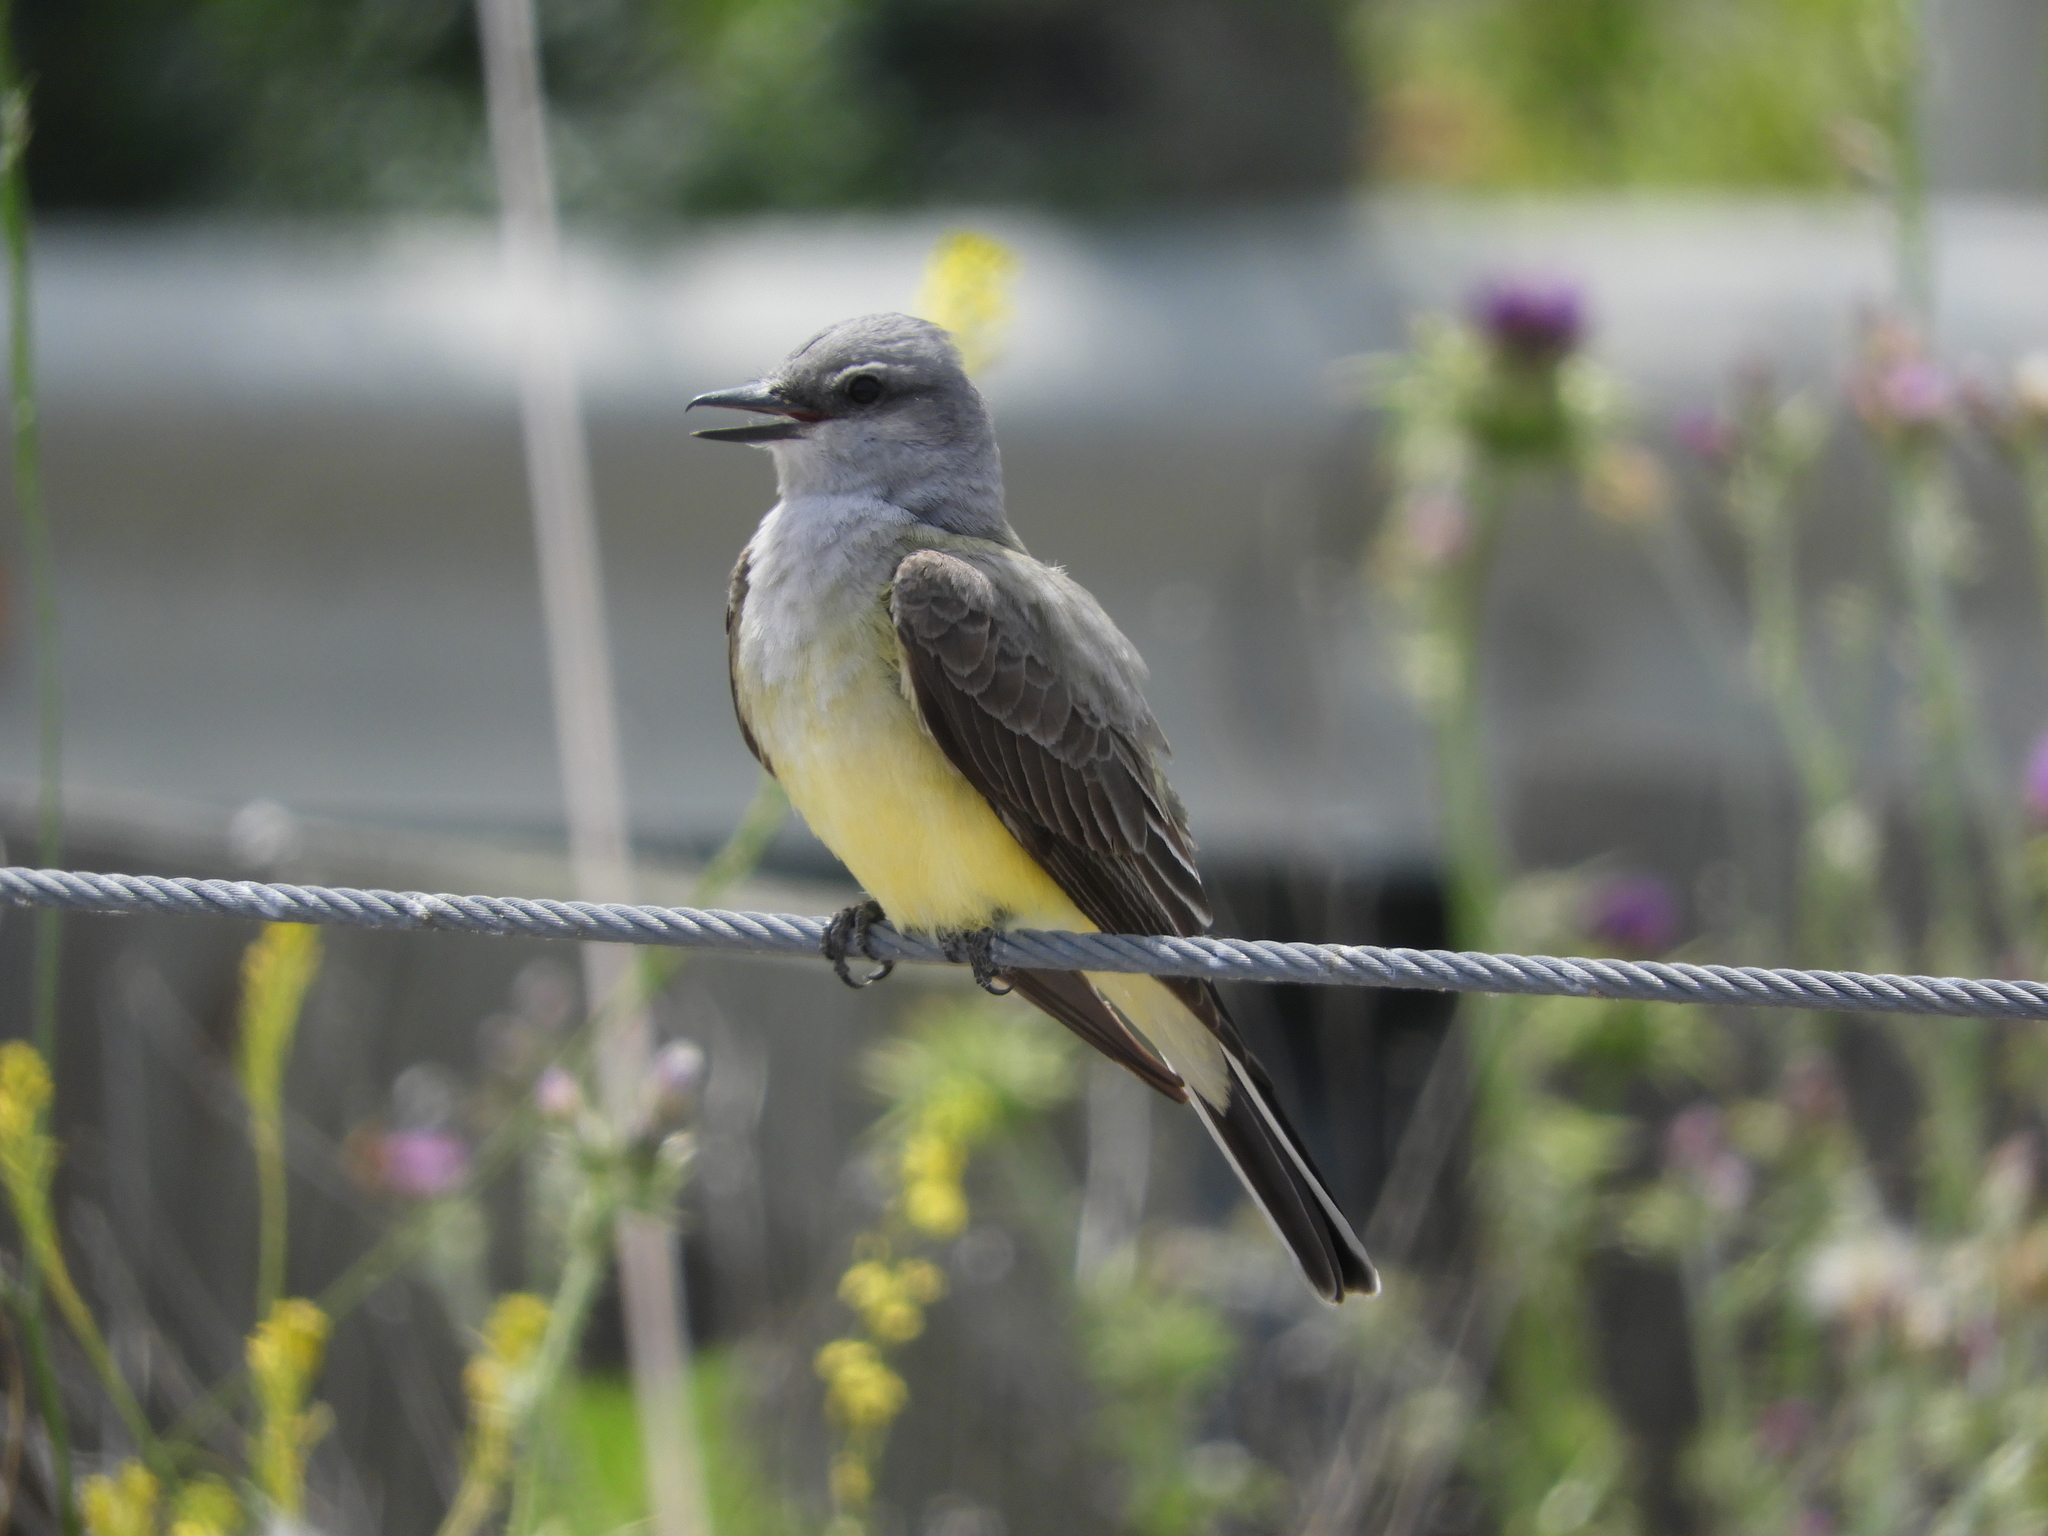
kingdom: Animalia
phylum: Chordata
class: Aves
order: Passeriformes
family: Tyrannidae
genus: Tyrannus
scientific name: Tyrannus verticalis
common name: Western kingbird
